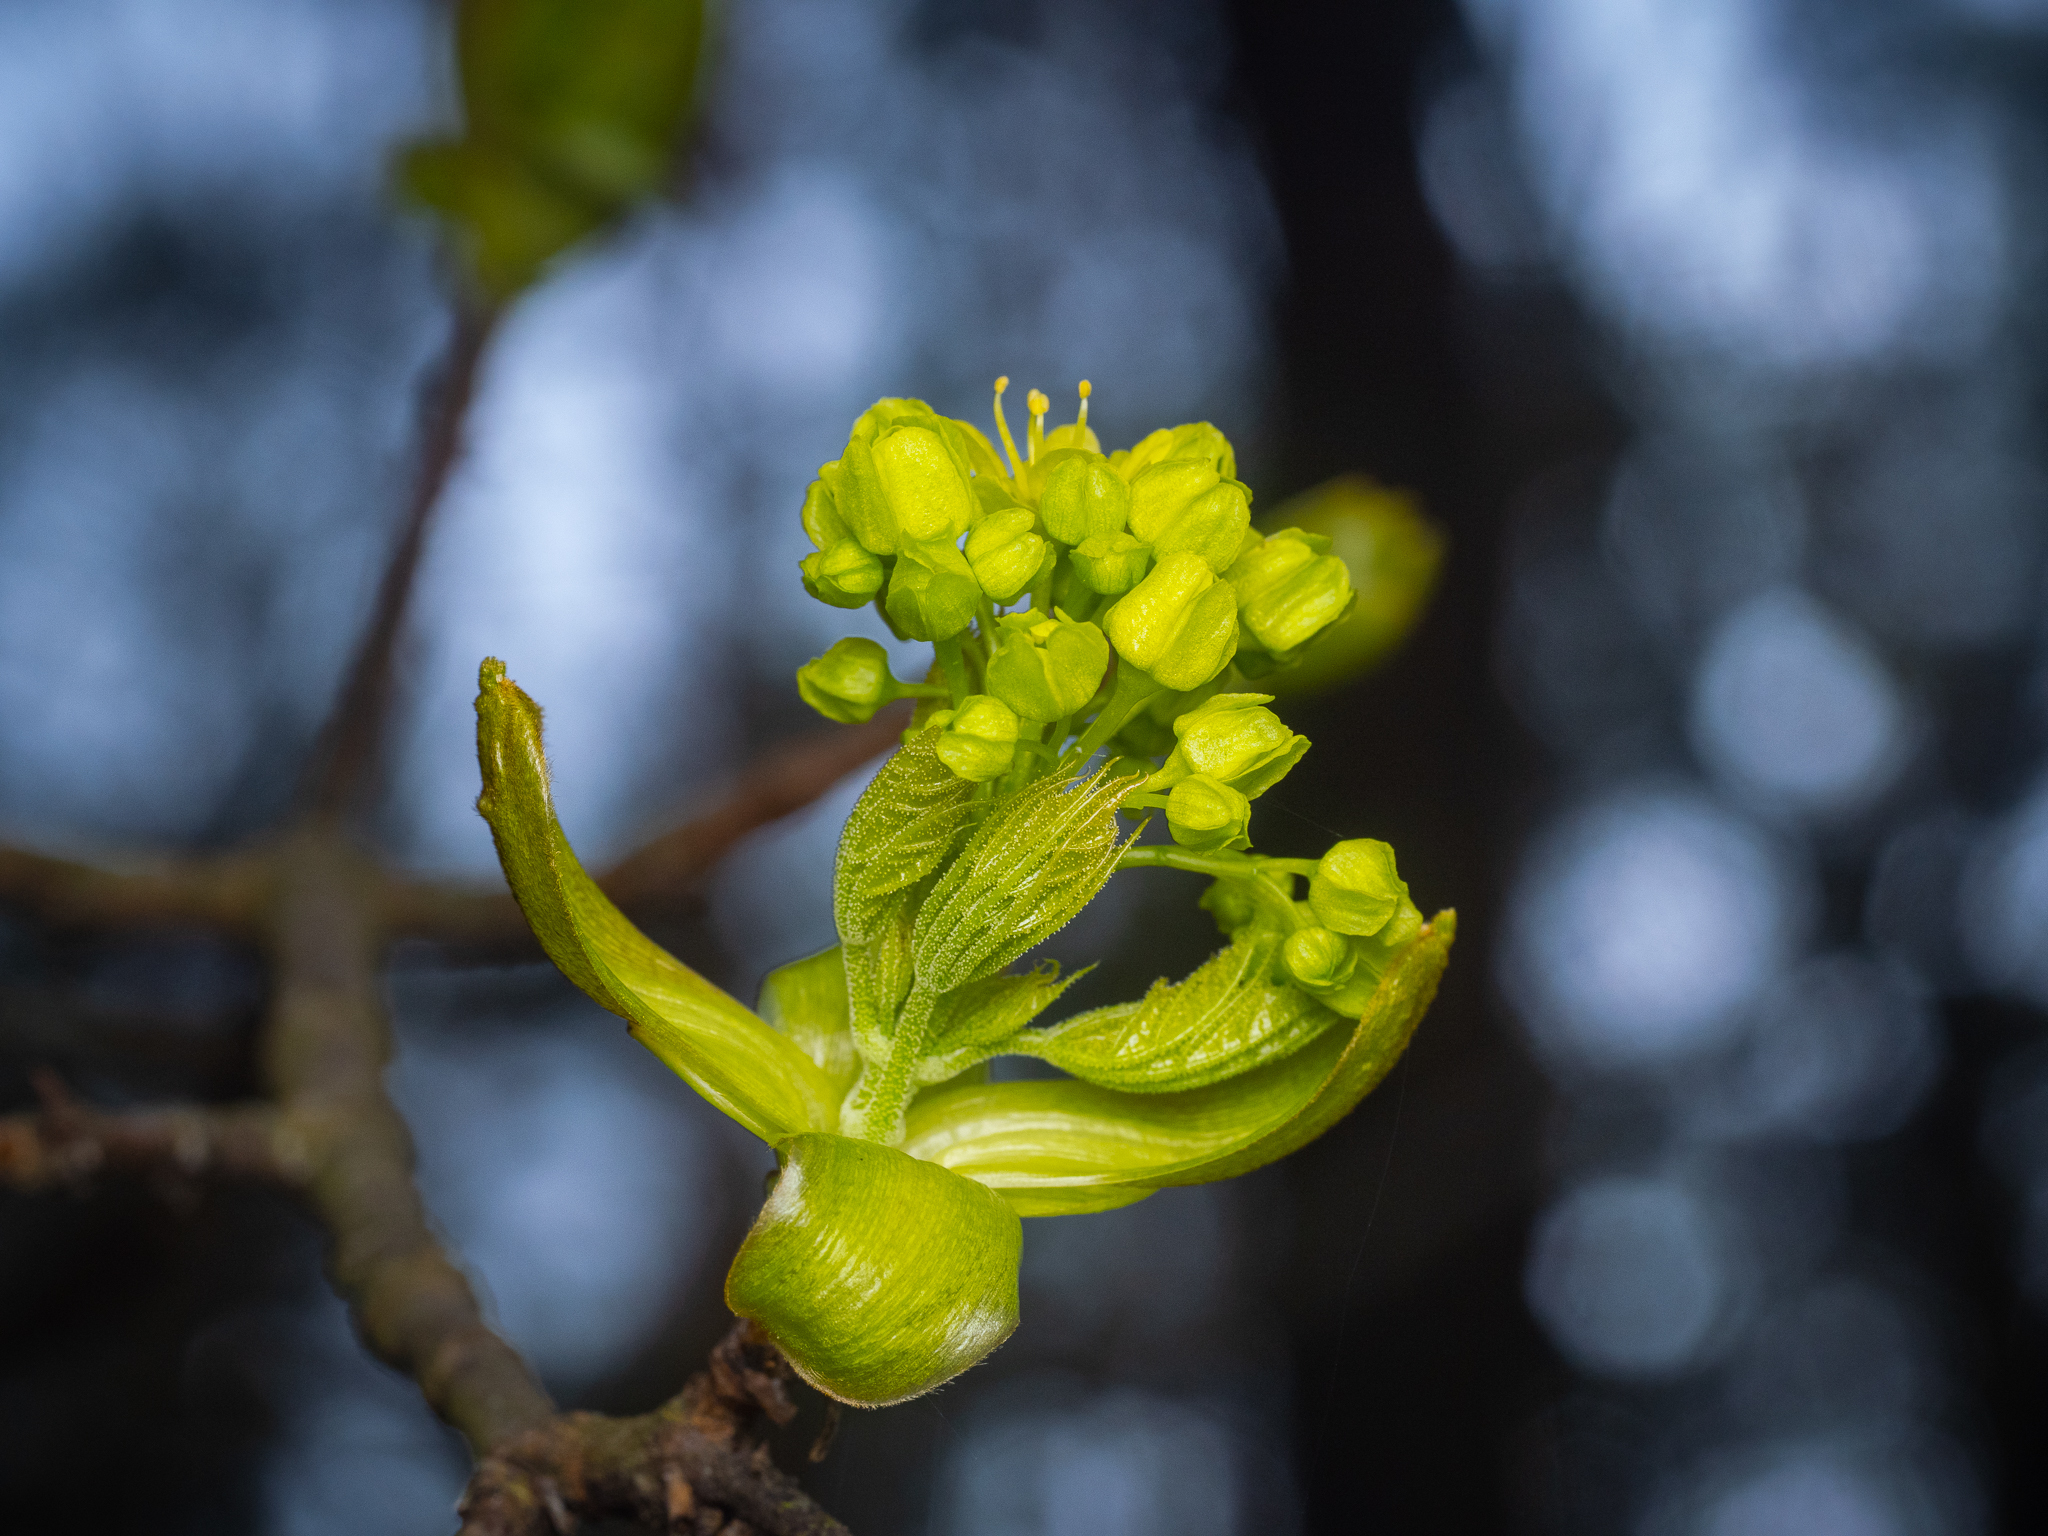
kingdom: Plantae
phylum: Tracheophyta
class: Magnoliopsida
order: Sapindales
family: Sapindaceae
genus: Acer
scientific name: Acer platanoides
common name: Norway maple
